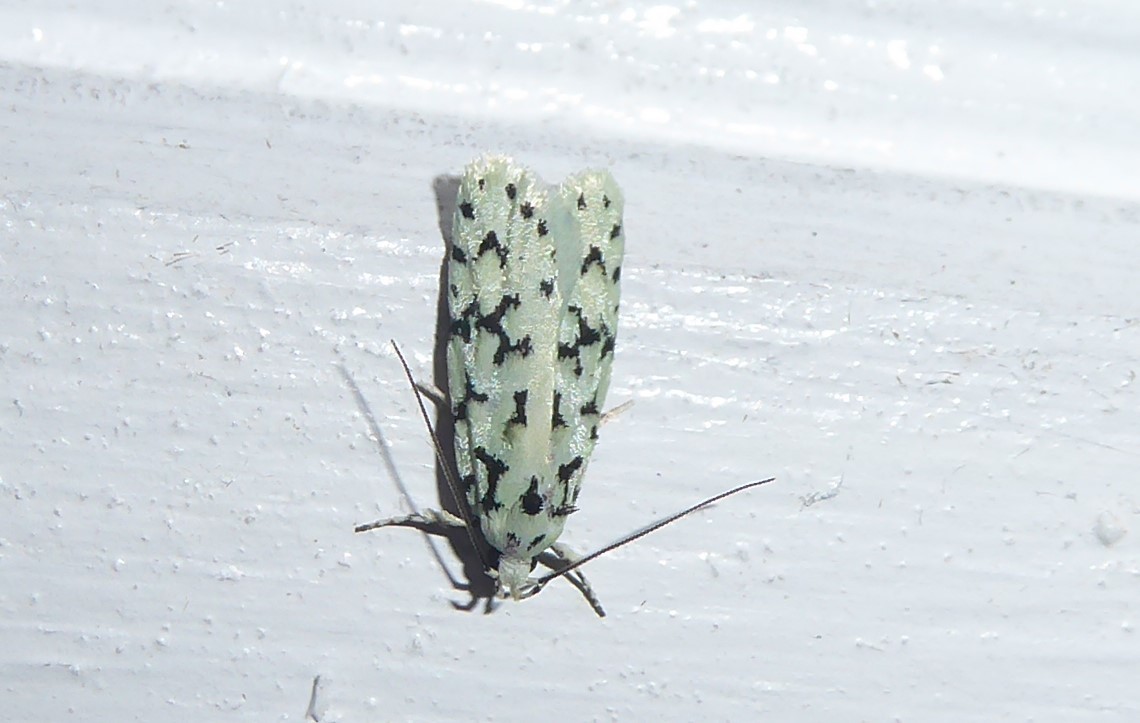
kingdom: Animalia
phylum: Arthropoda
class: Insecta
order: Lepidoptera
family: Oecophoridae
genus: Izatha
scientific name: Izatha huttoni
